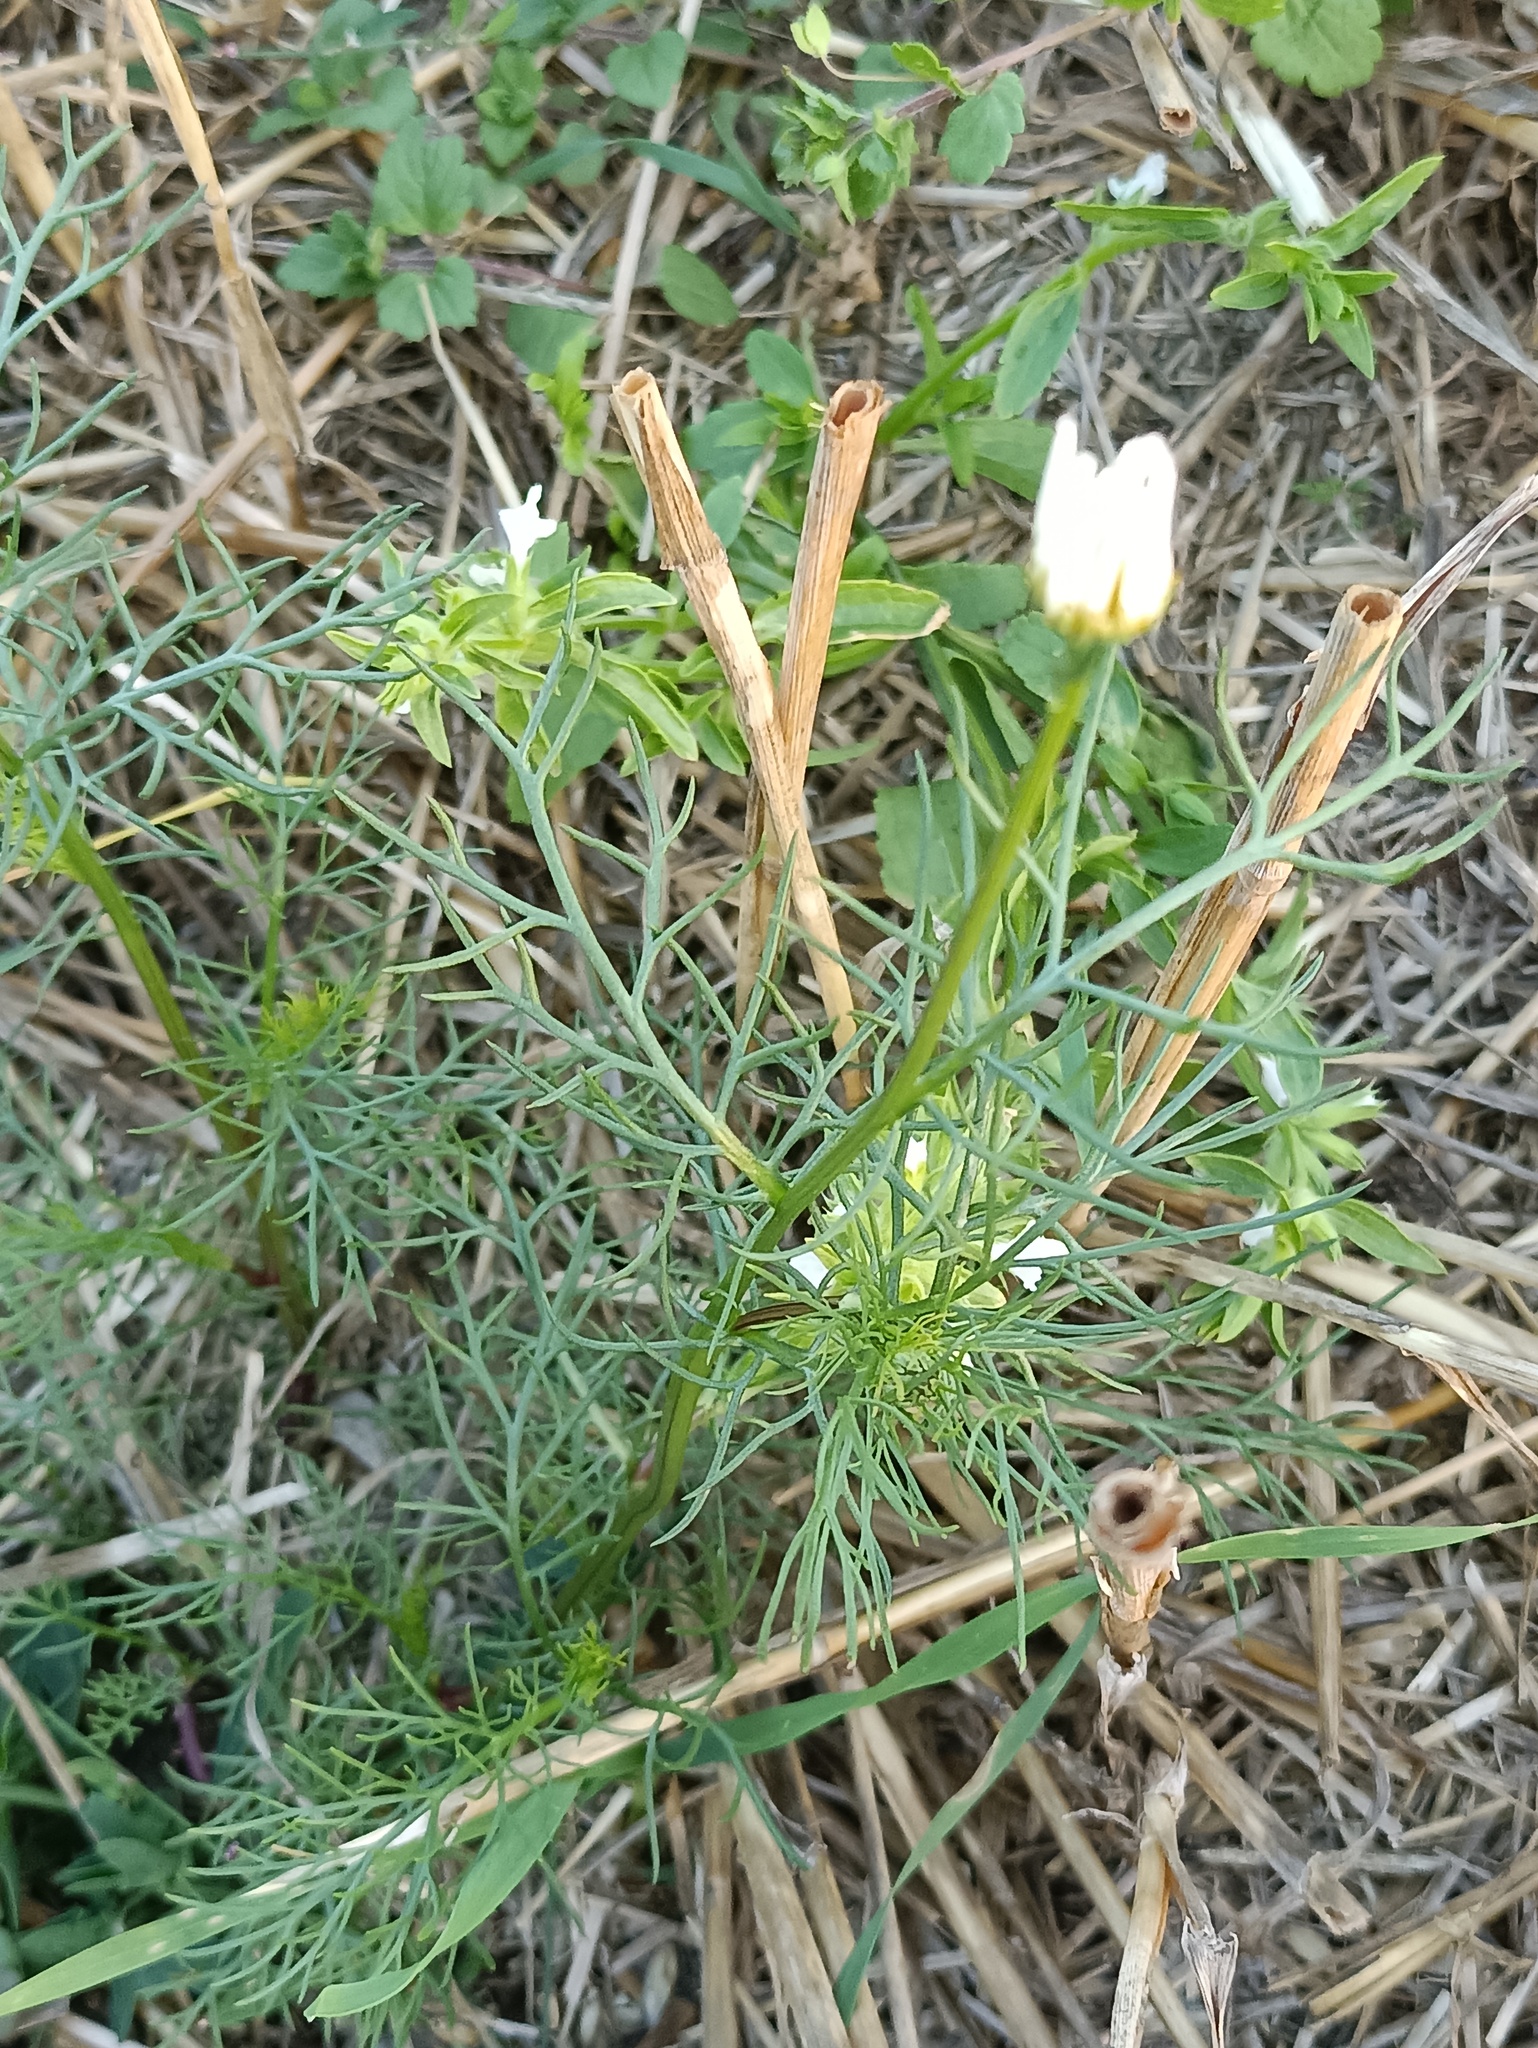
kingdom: Plantae
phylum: Tracheophyta
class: Magnoliopsida
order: Asterales
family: Asteraceae
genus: Tripleurospermum
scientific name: Tripleurospermum inodorum
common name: Scentless mayweed
